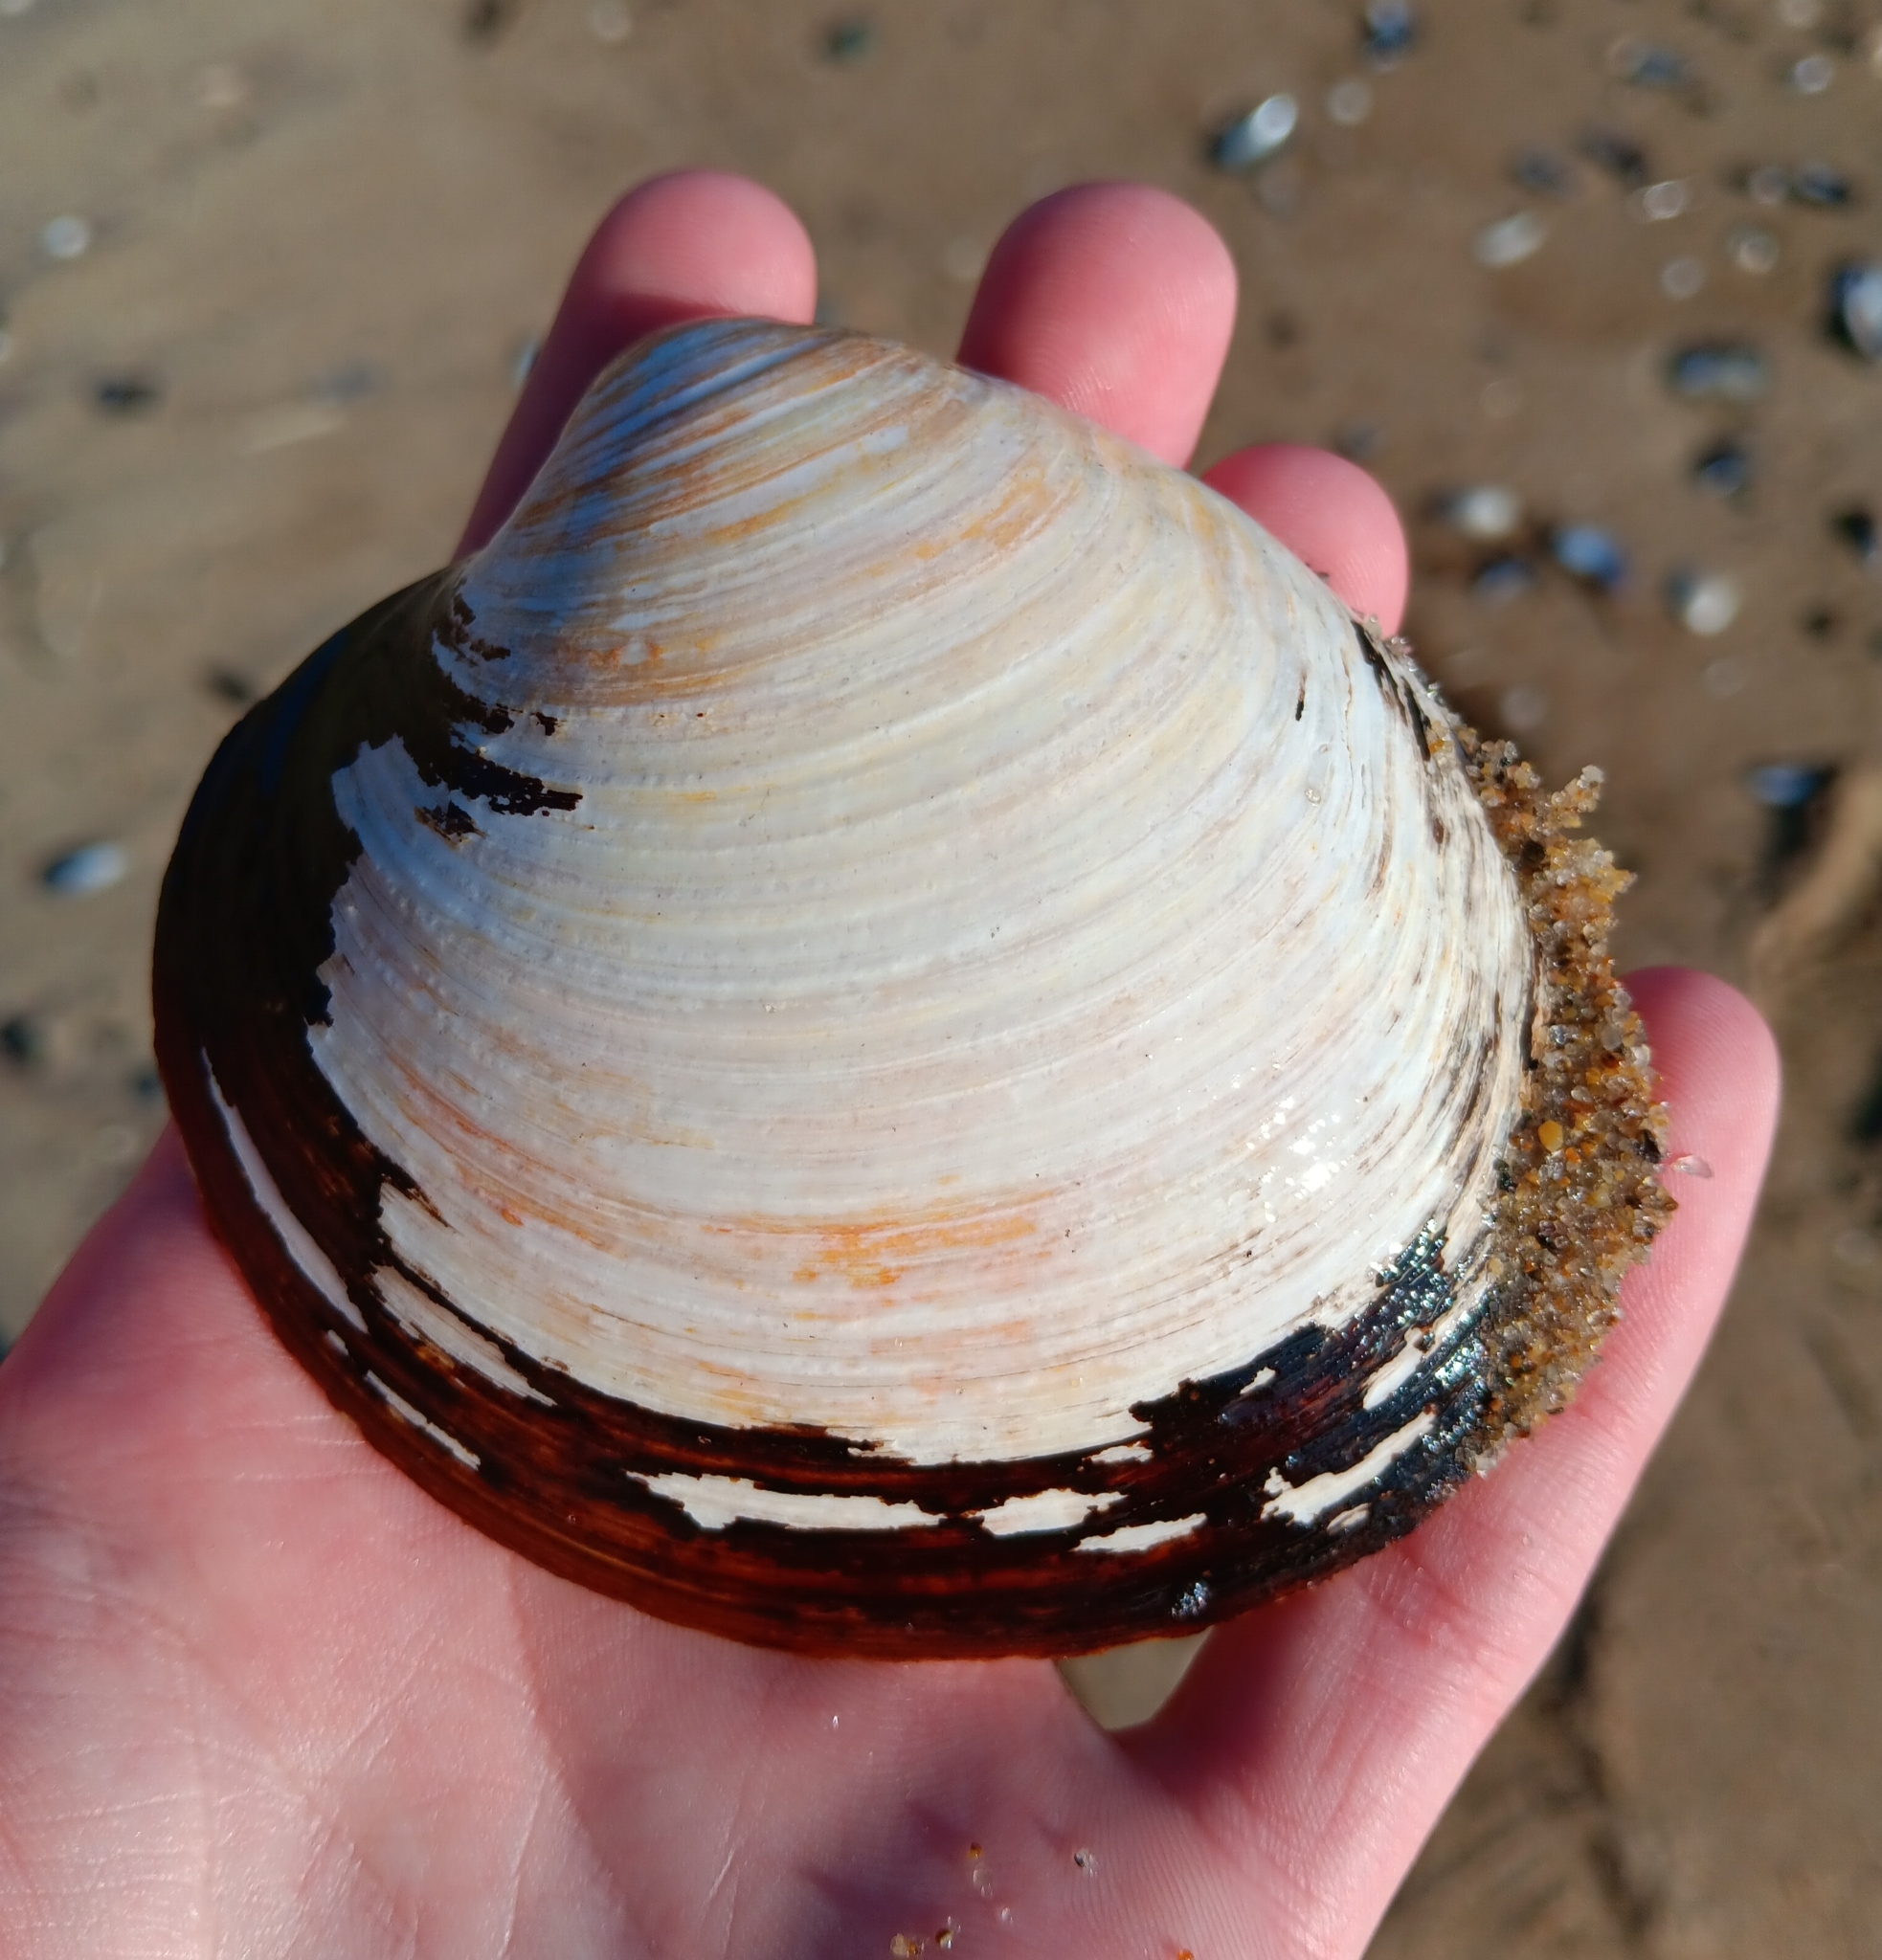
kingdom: Animalia
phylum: Mollusca
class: Bivalvia
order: Venerida
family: Arcticidae
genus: Arctica
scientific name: Arctica islandica
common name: Icelandic cyprine
